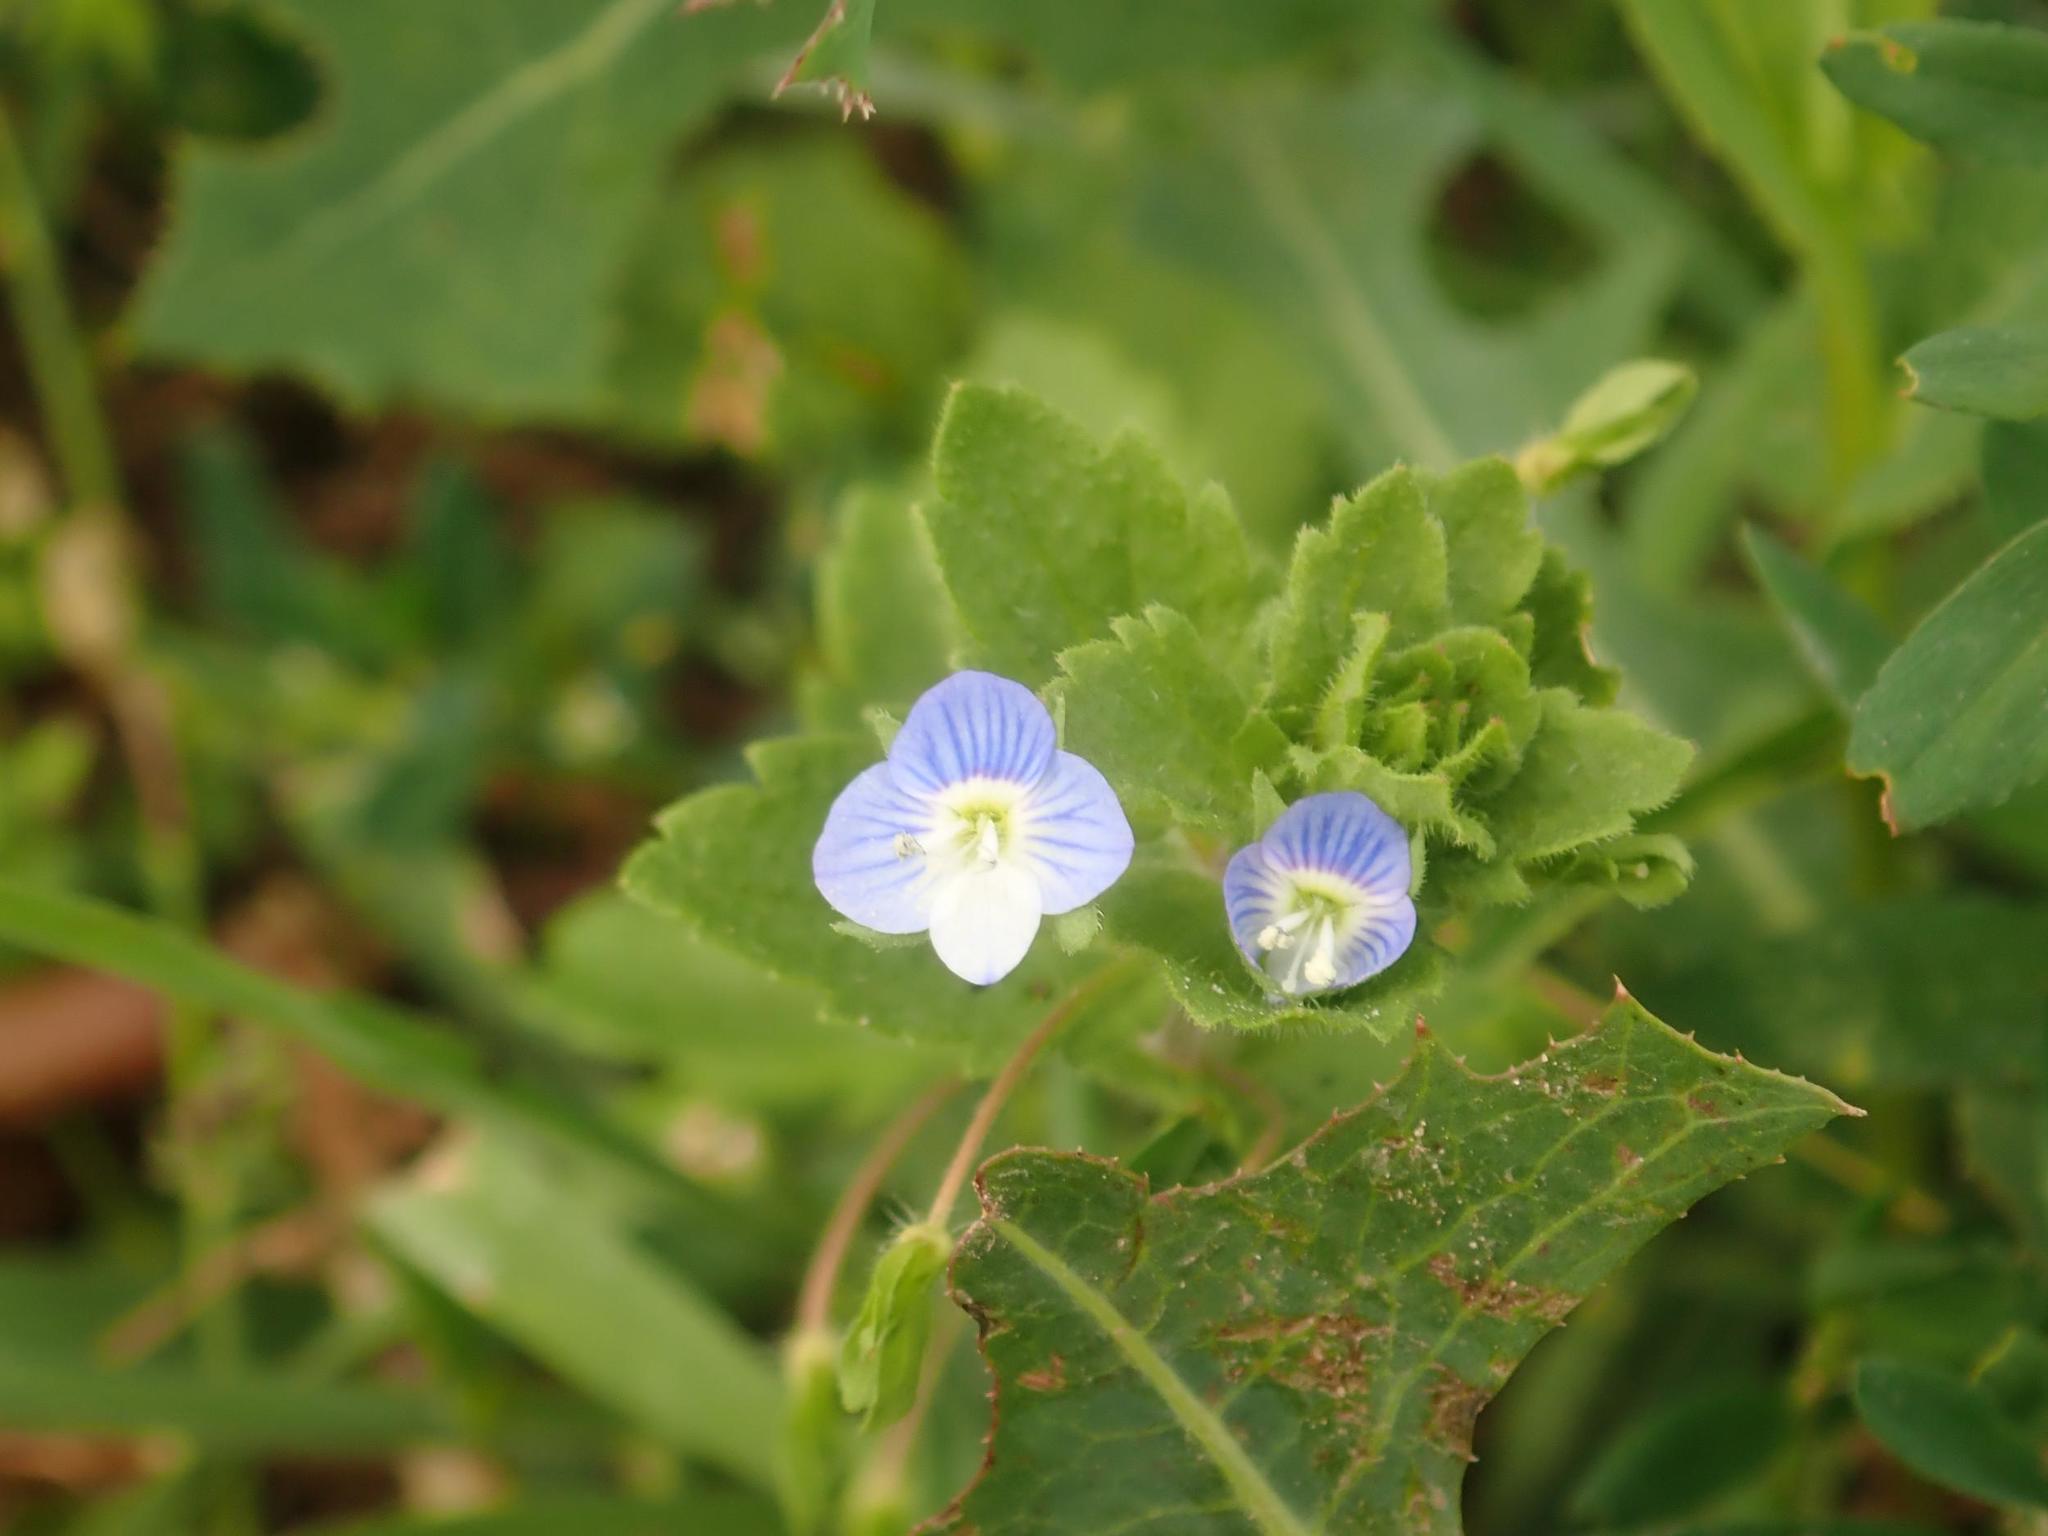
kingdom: Plantae
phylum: Tracheophyta
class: Magnoliopsida
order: Lamiales
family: Plantaginaceae
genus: Veronica
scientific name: Veronica persica
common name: Common field-speedwell
